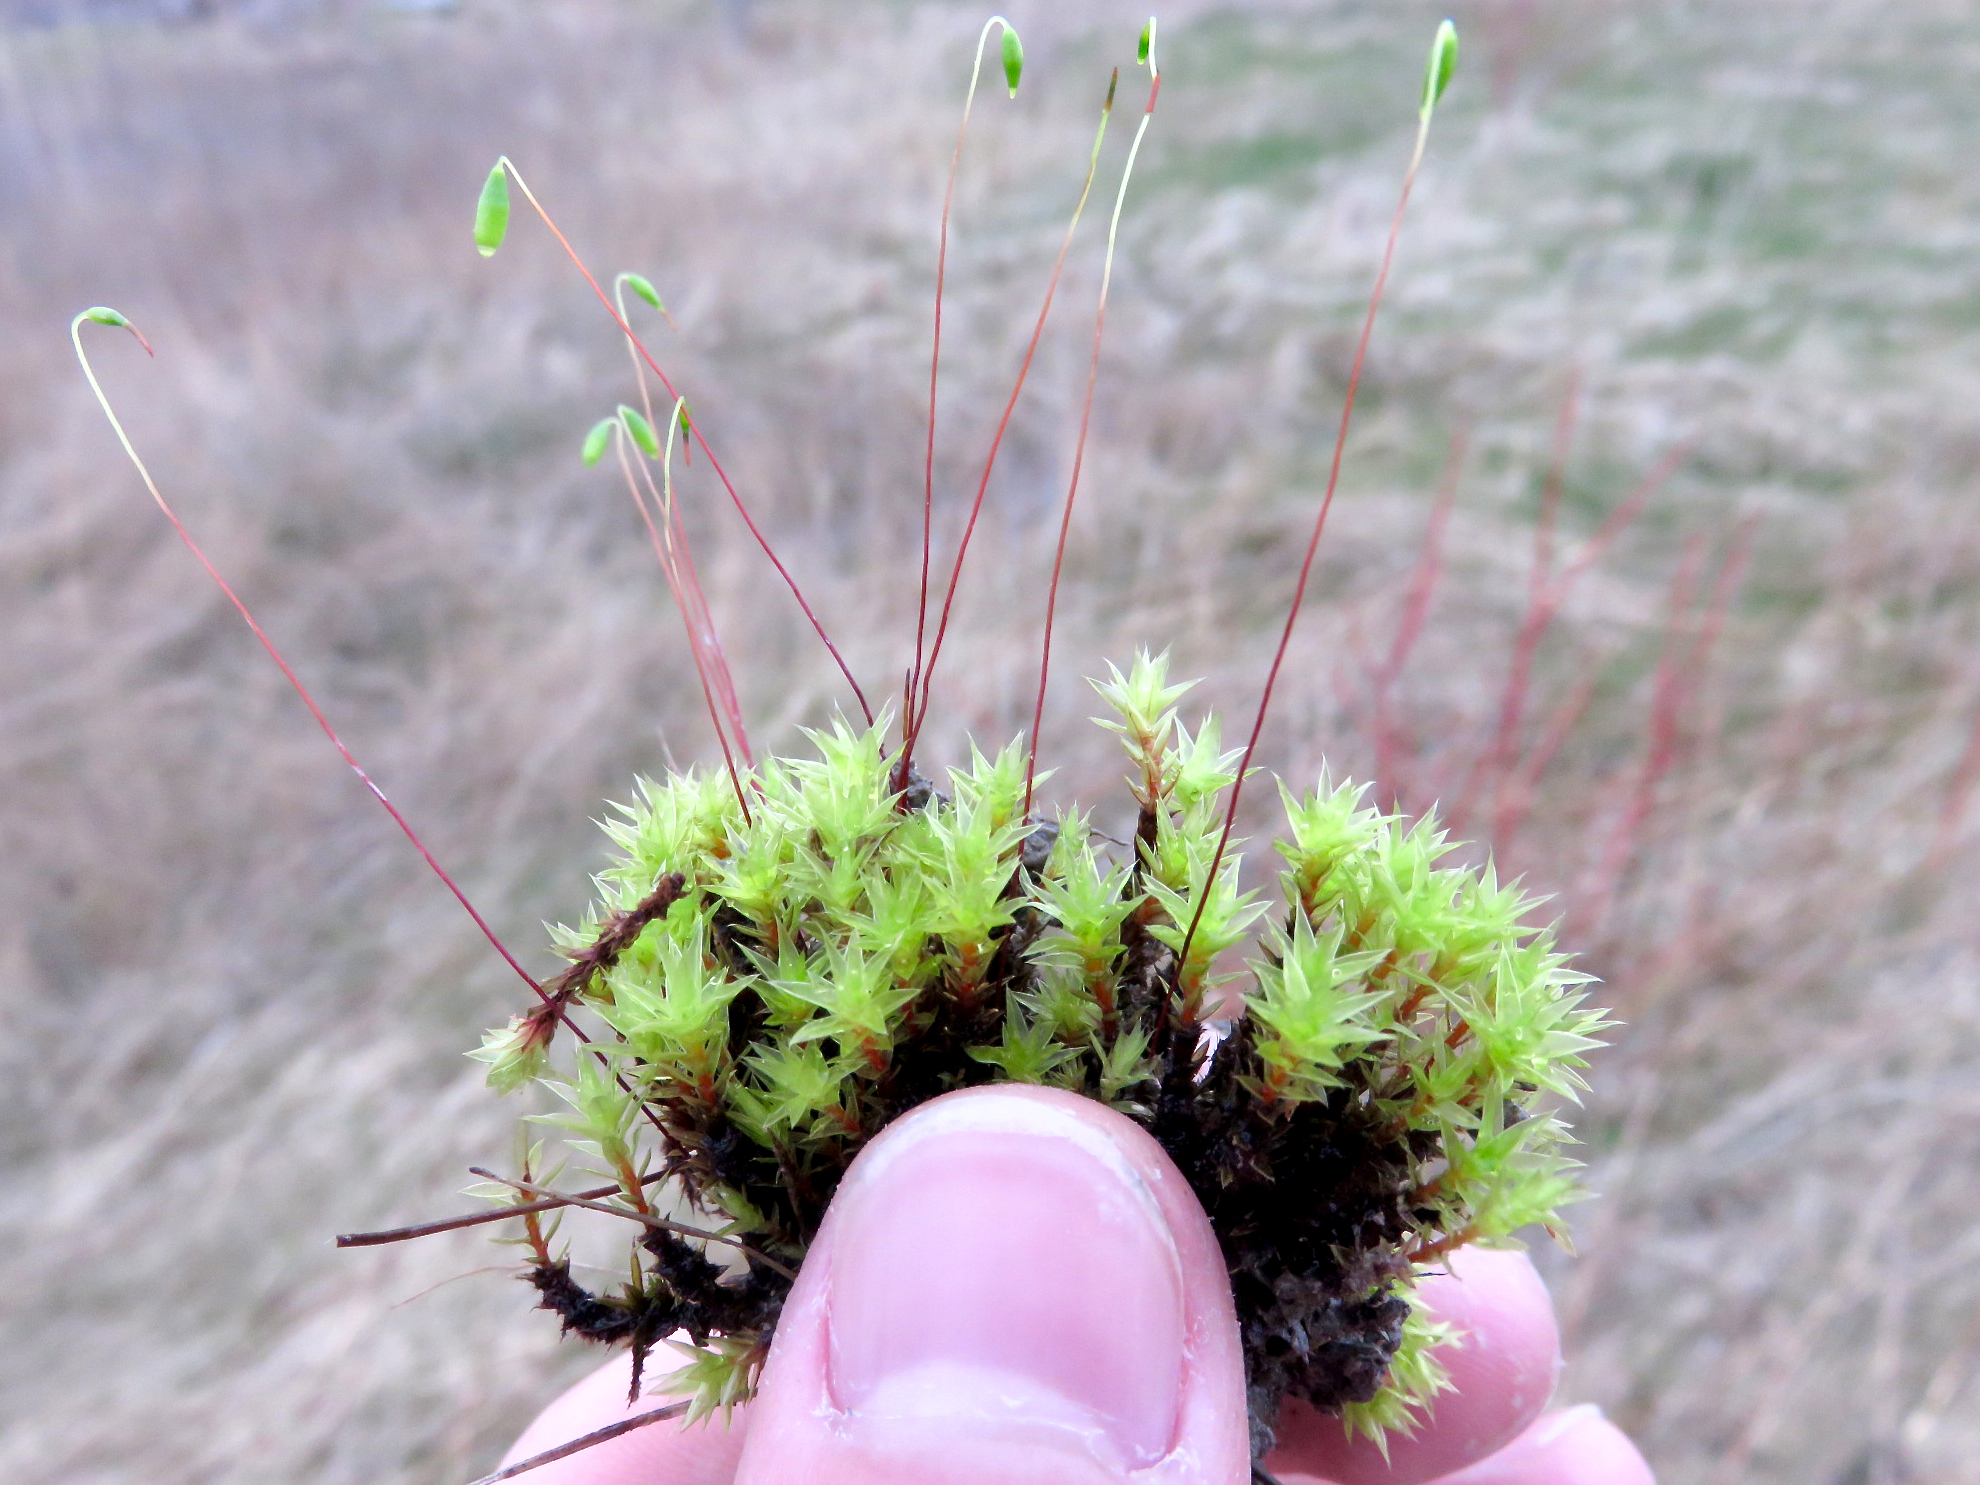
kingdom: Plantae
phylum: Bryophyta
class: Bryopsida
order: Bryales
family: Bryaceae
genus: Ptychostomum
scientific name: Ptychostomum pseudotriquetrum
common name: Long-leaved thread moss
